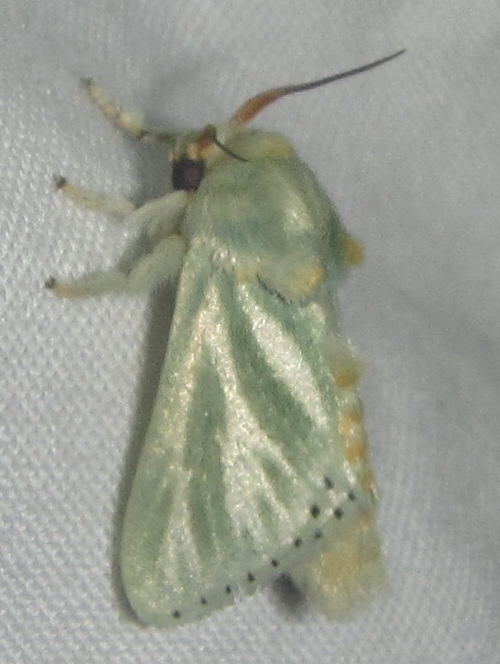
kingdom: Animalia
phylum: Arthropoda
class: Insecta
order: Lepidoptera
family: Limacodidae
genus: Coenobasis
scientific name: Coenobasis albiramosa
